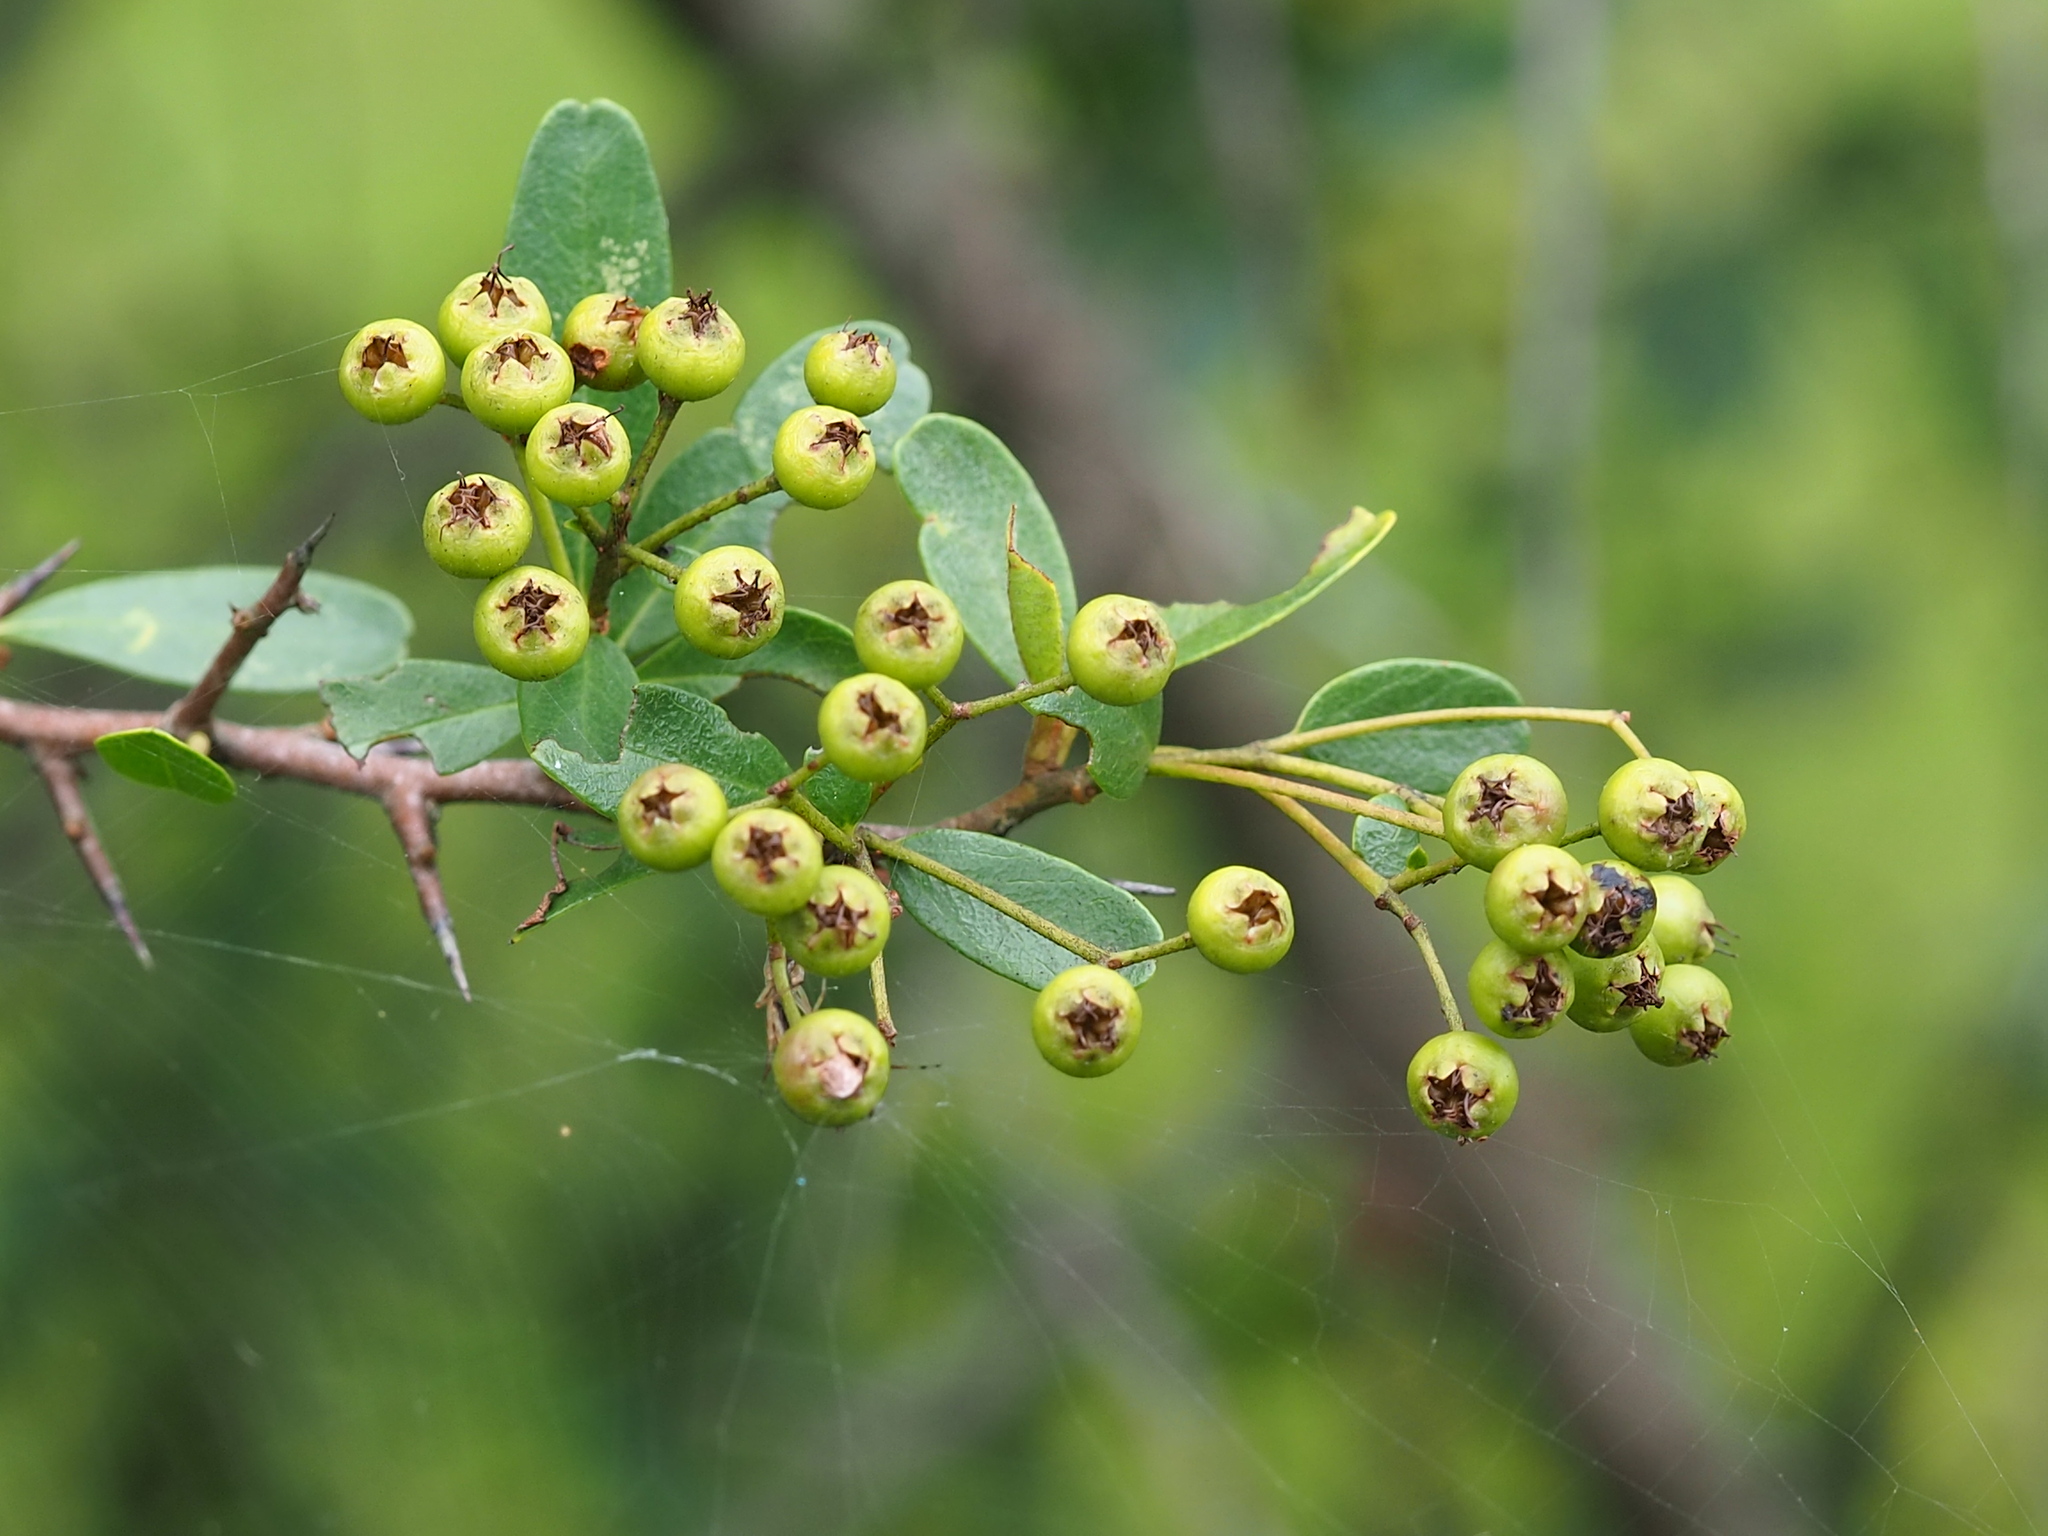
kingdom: Plantae
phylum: Tracheophyta
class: Magnoliopsida
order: Rosales
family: Rosaceae
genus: Pyracantha
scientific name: Pyracantha koidzumii
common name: Formosa firethorn
